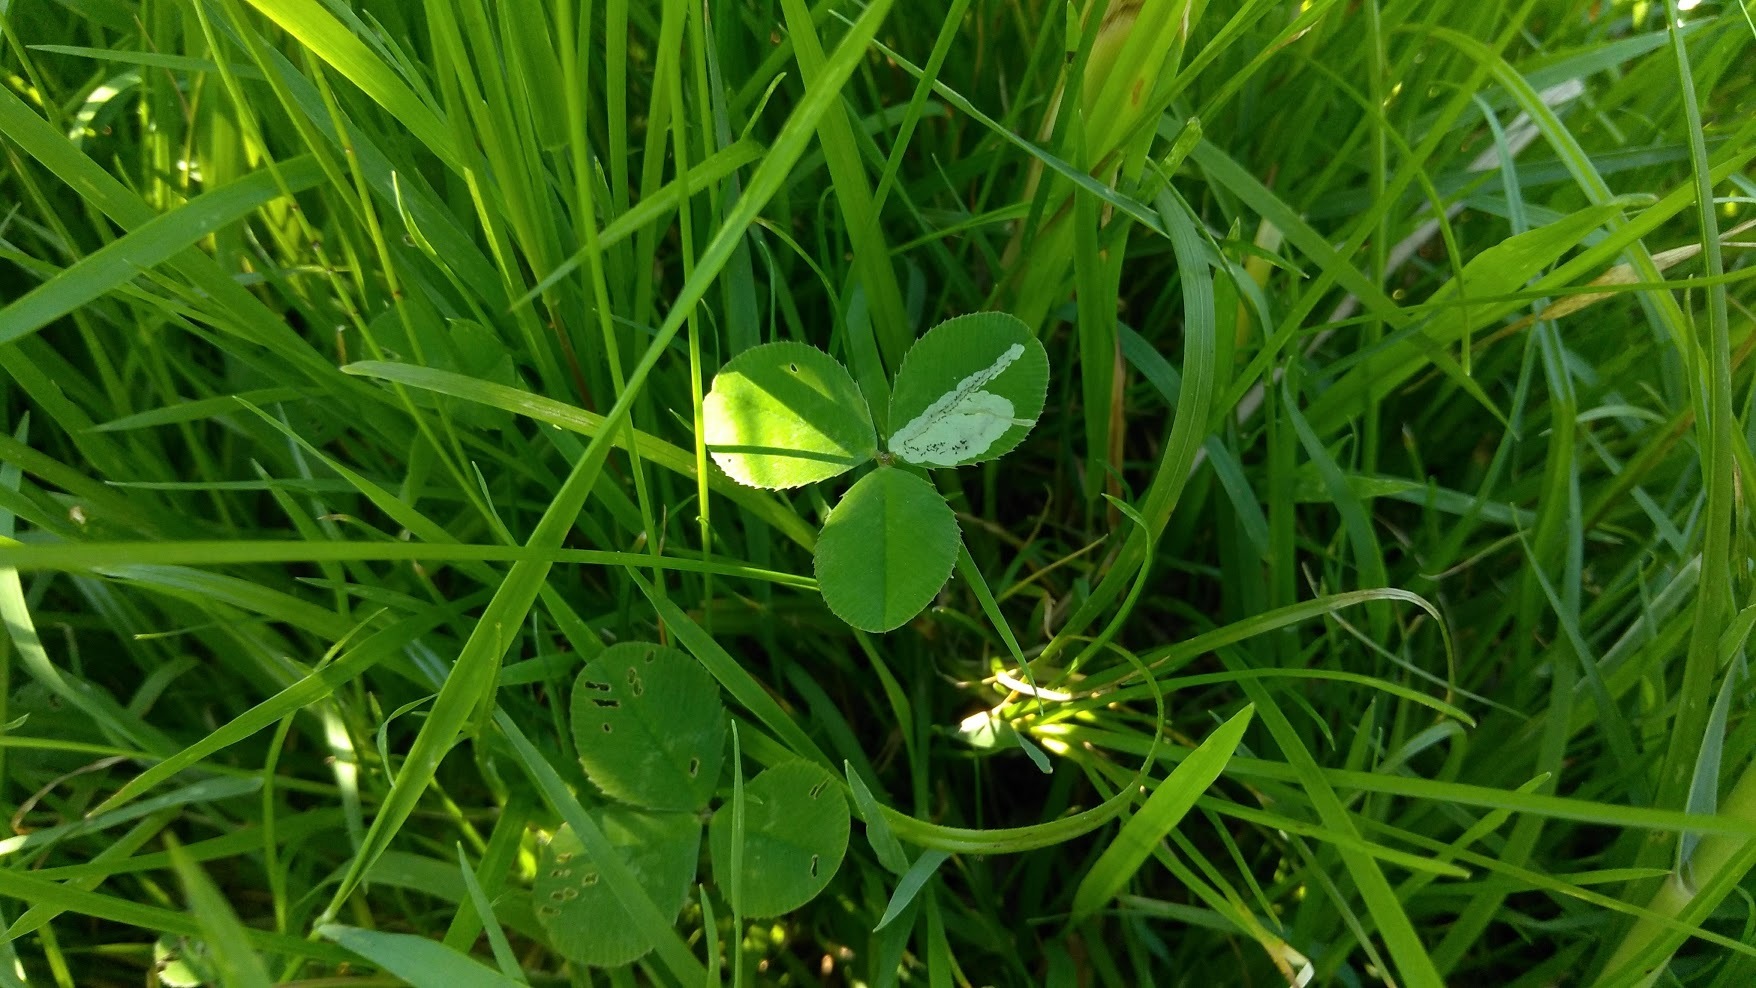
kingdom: Animalia
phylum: Arthropoda
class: Insecta
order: Diptera
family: Agromyzidae
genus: Liriomyza
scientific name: Liriomyza fricki
